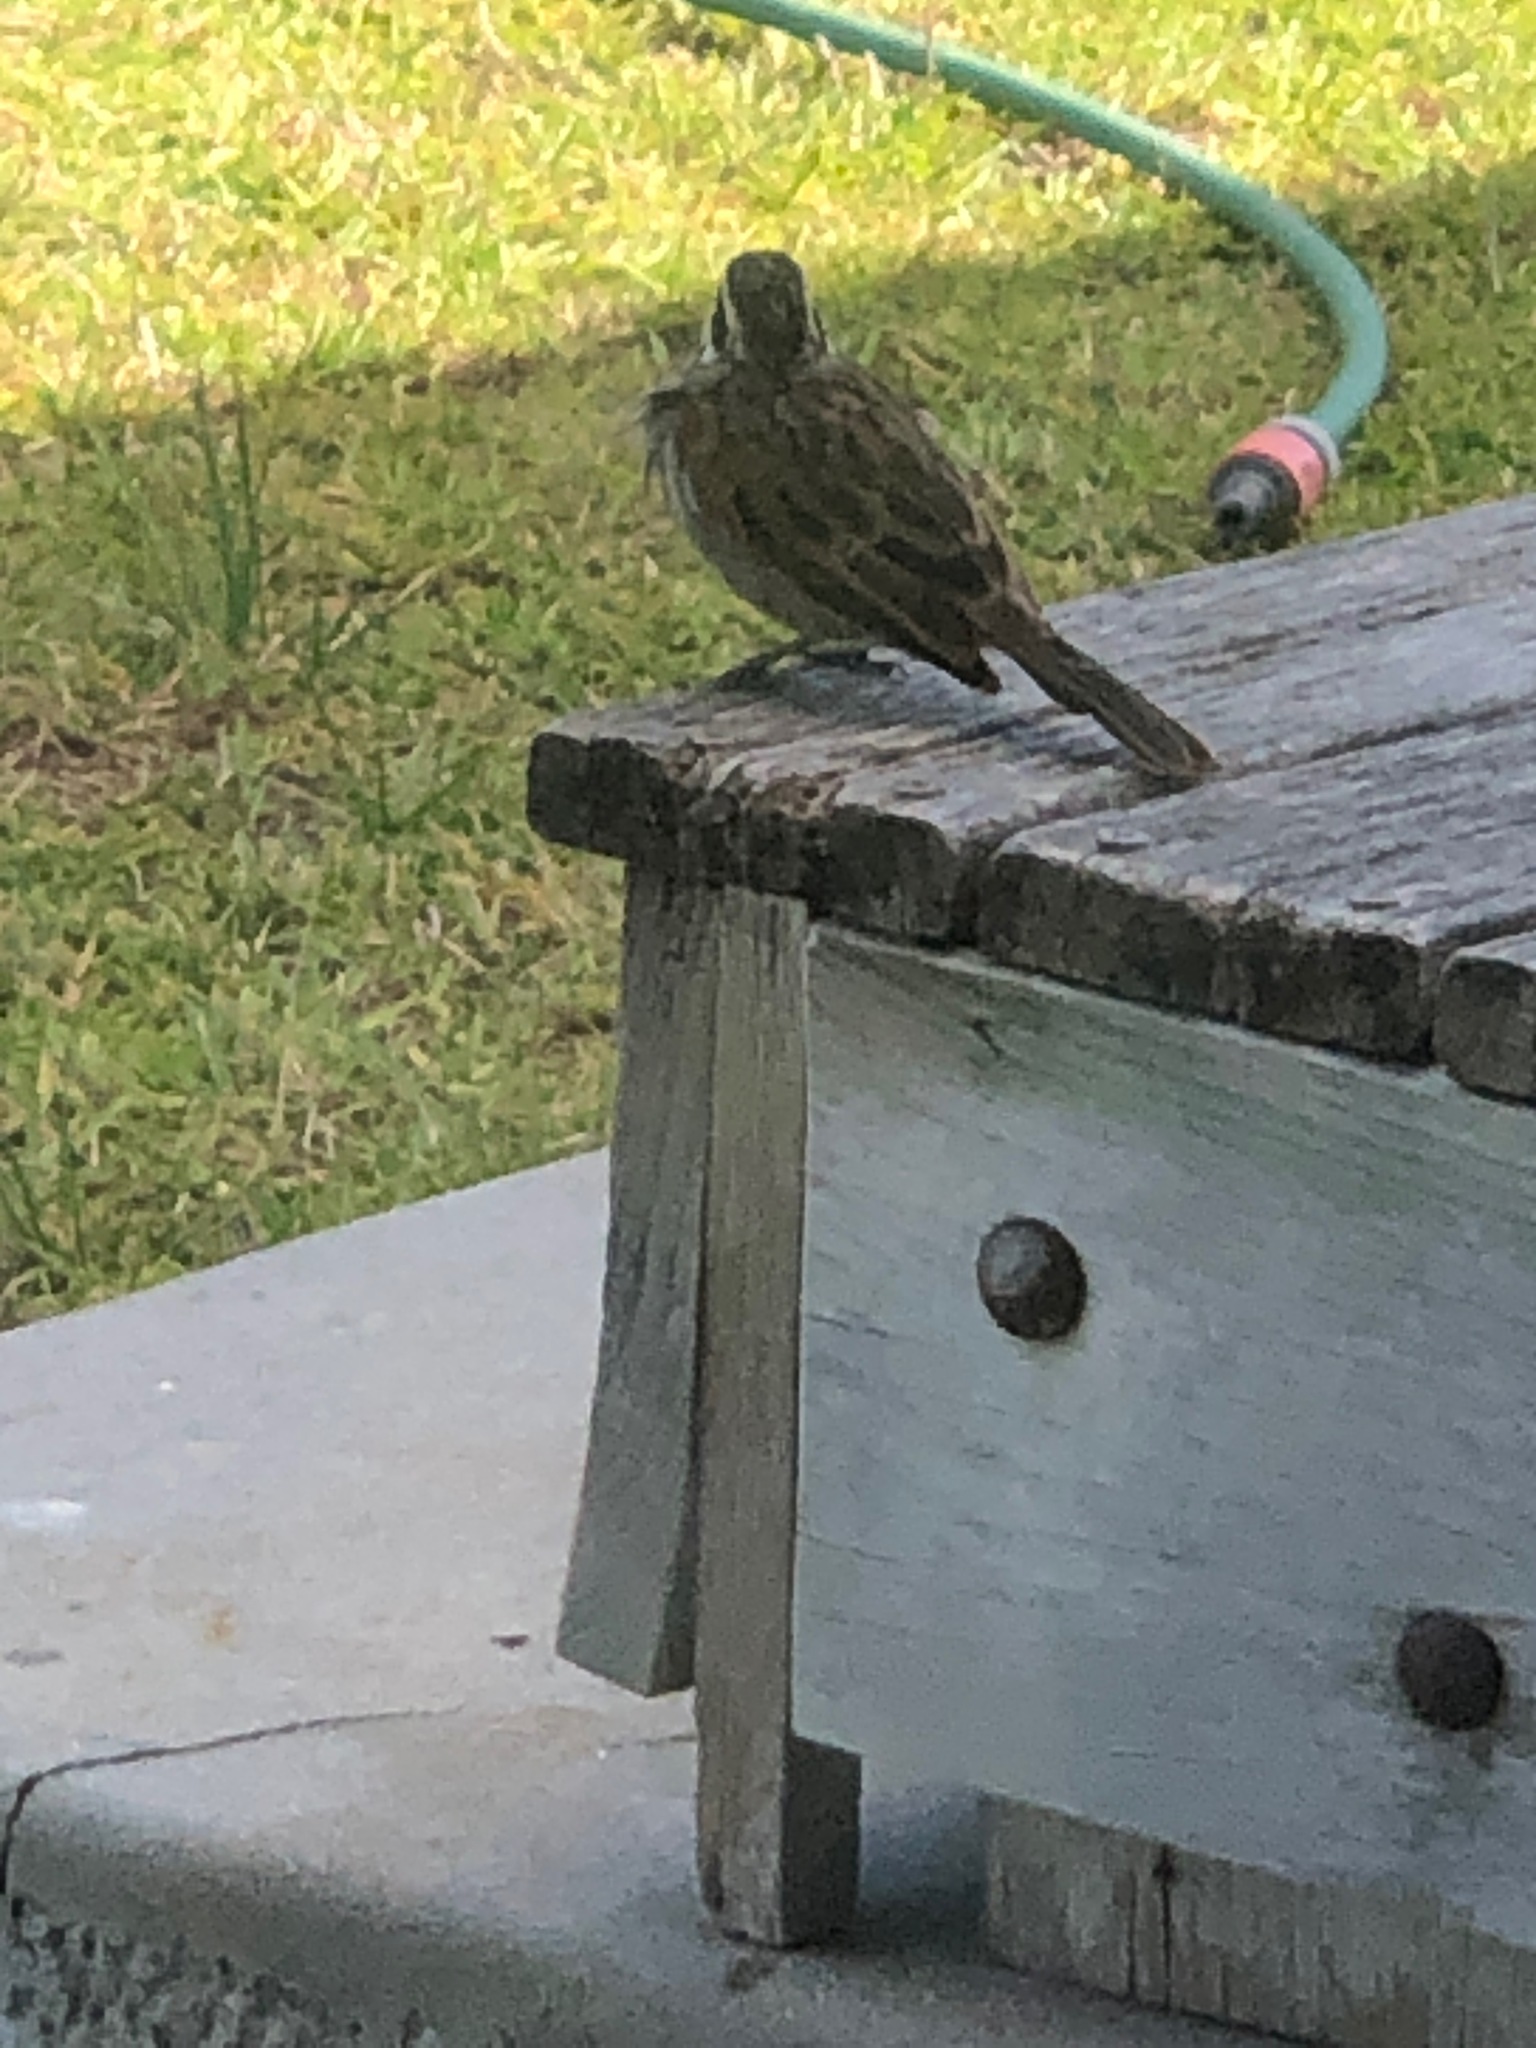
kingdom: Animalia
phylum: Chordata
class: Aves
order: Passeriformes
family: Emberizidae
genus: Emberiza
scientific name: Emberiza capensis
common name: Cape bunting
